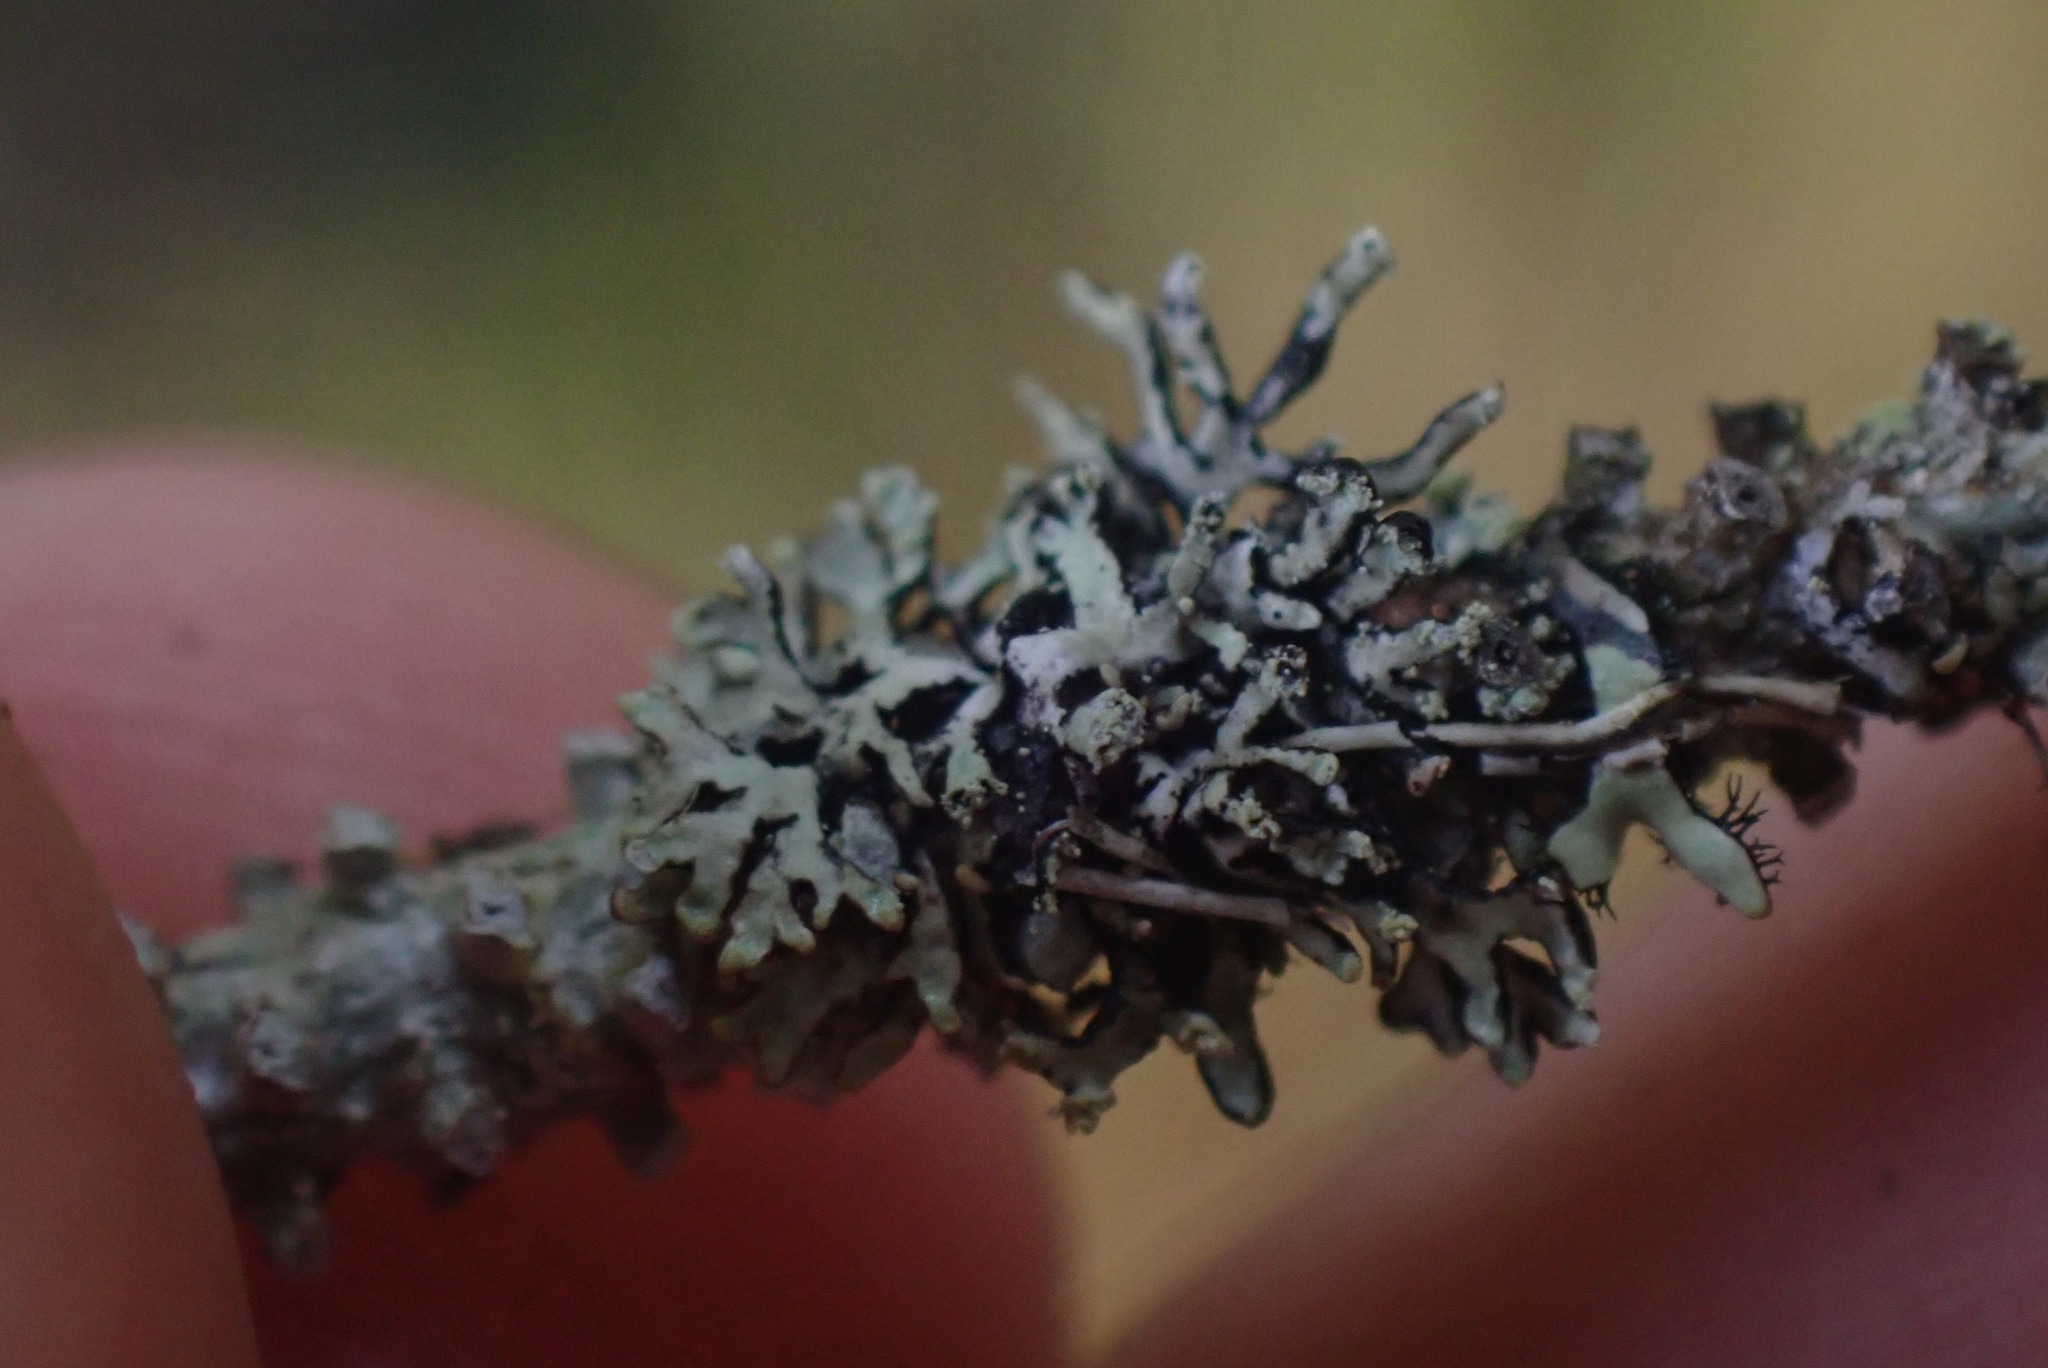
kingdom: Fungi
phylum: Ascomycota
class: Lecanoromycetes
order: Lecanorales
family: Parmeliaceae
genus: Hypogymnia
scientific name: Hypogymnia hultenii
